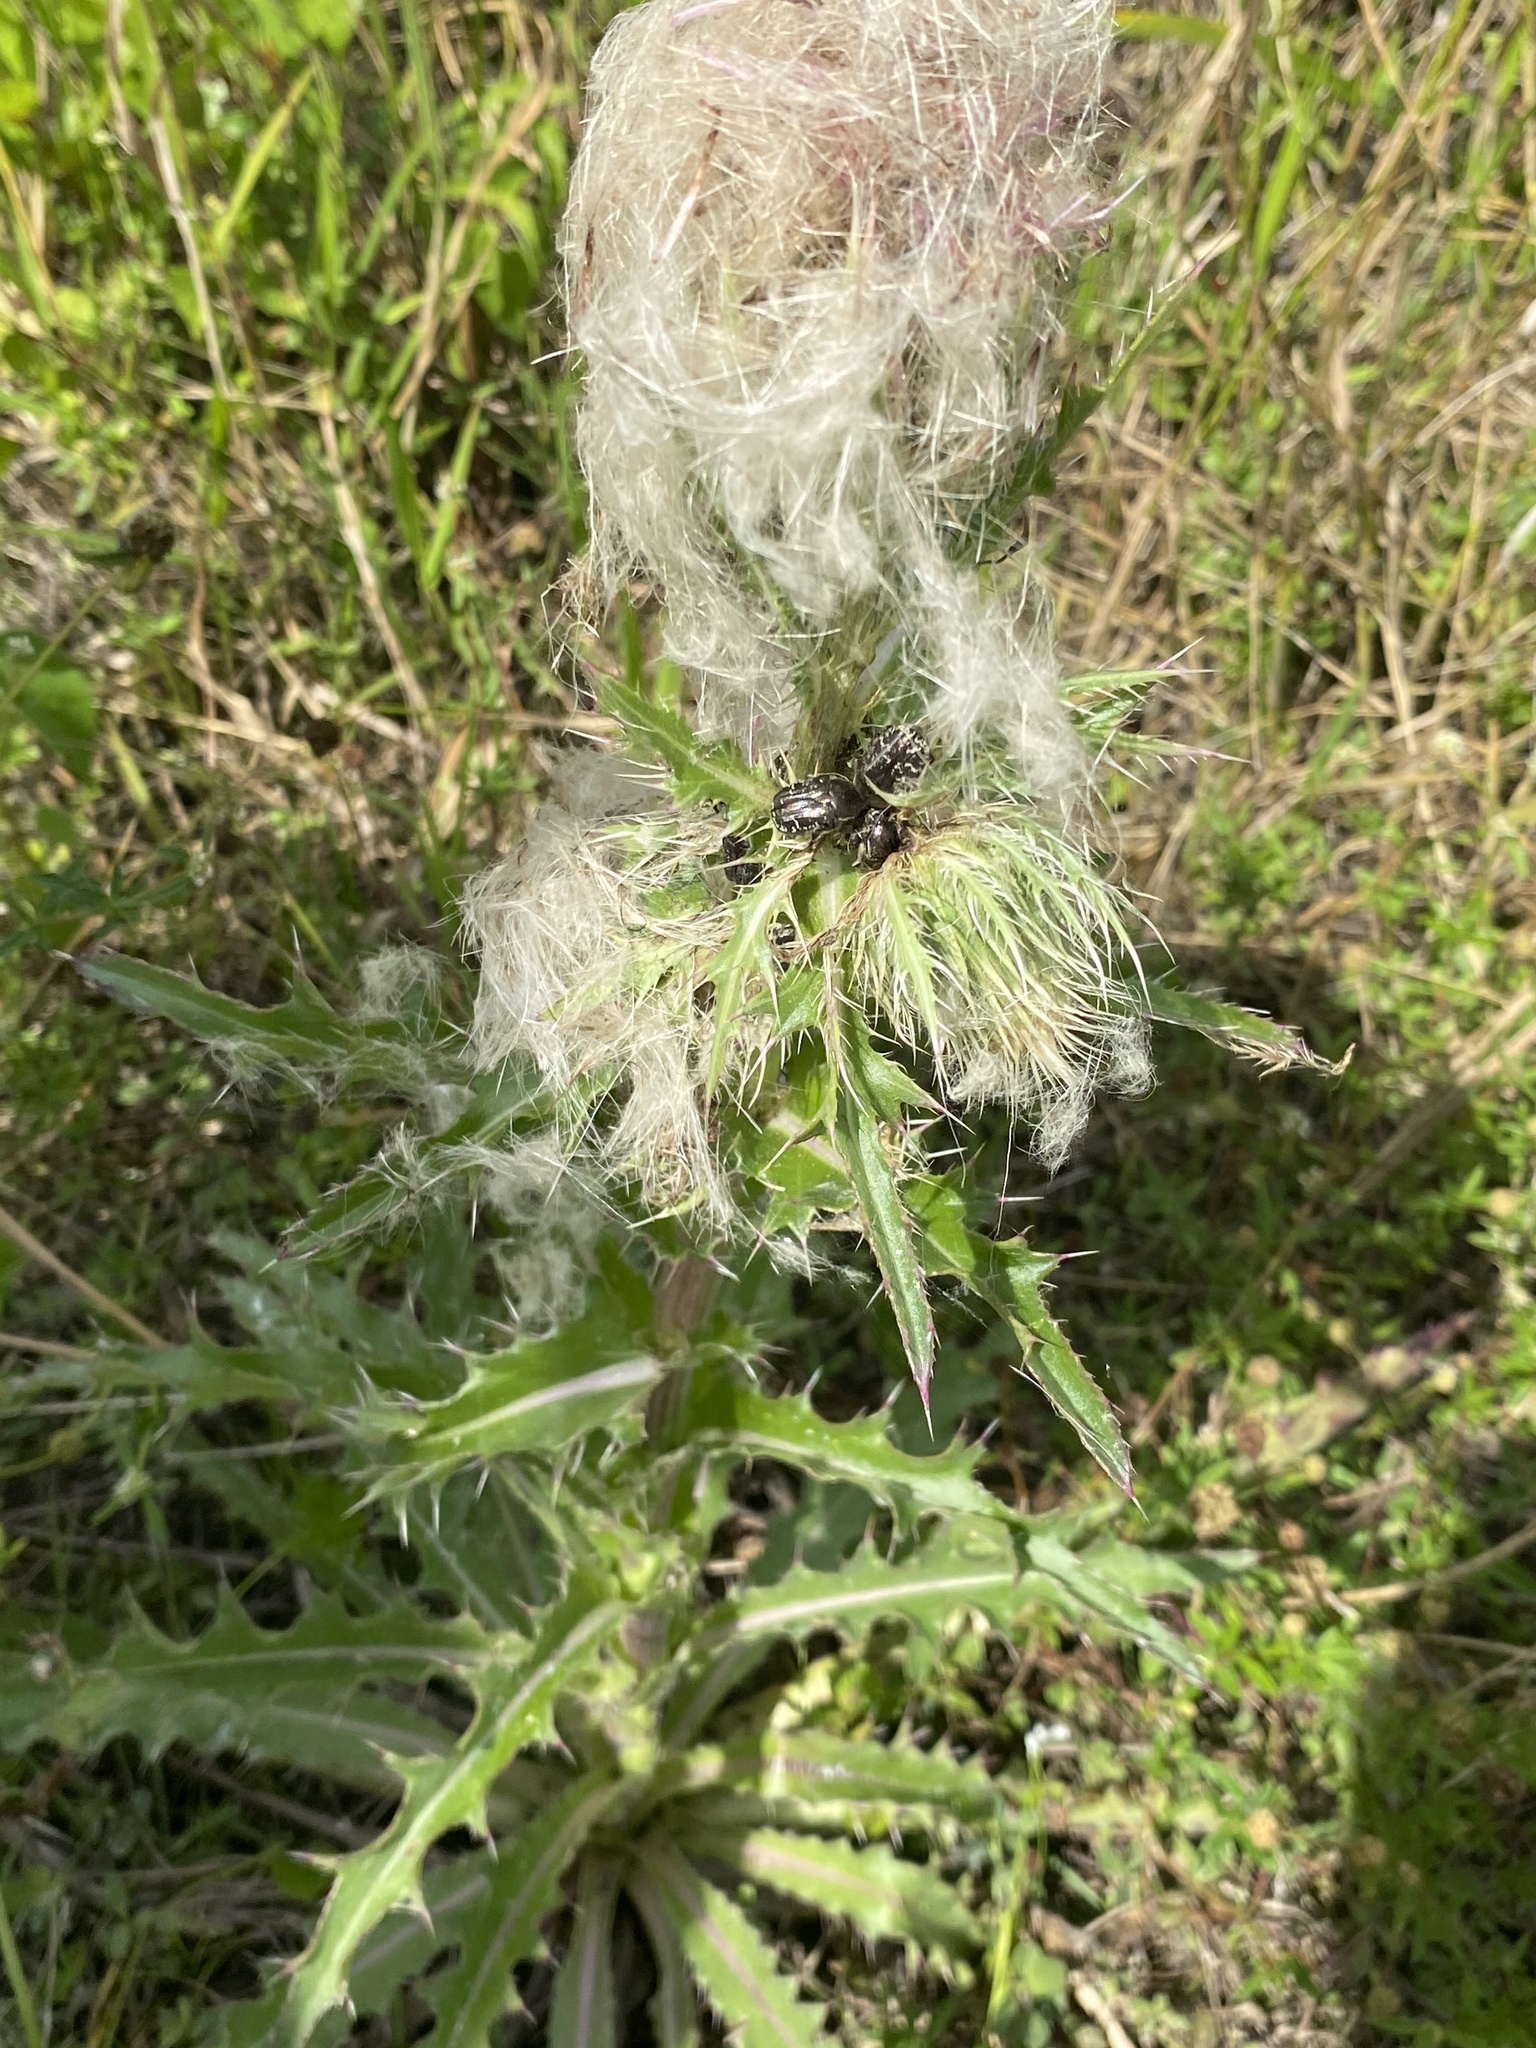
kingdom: Plantae
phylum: Tracheophyta
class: Magnoliopsida
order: Asterales
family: Asteraceae
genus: Cirsium
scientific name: Cirsium horridulum
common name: Bristly thistle
